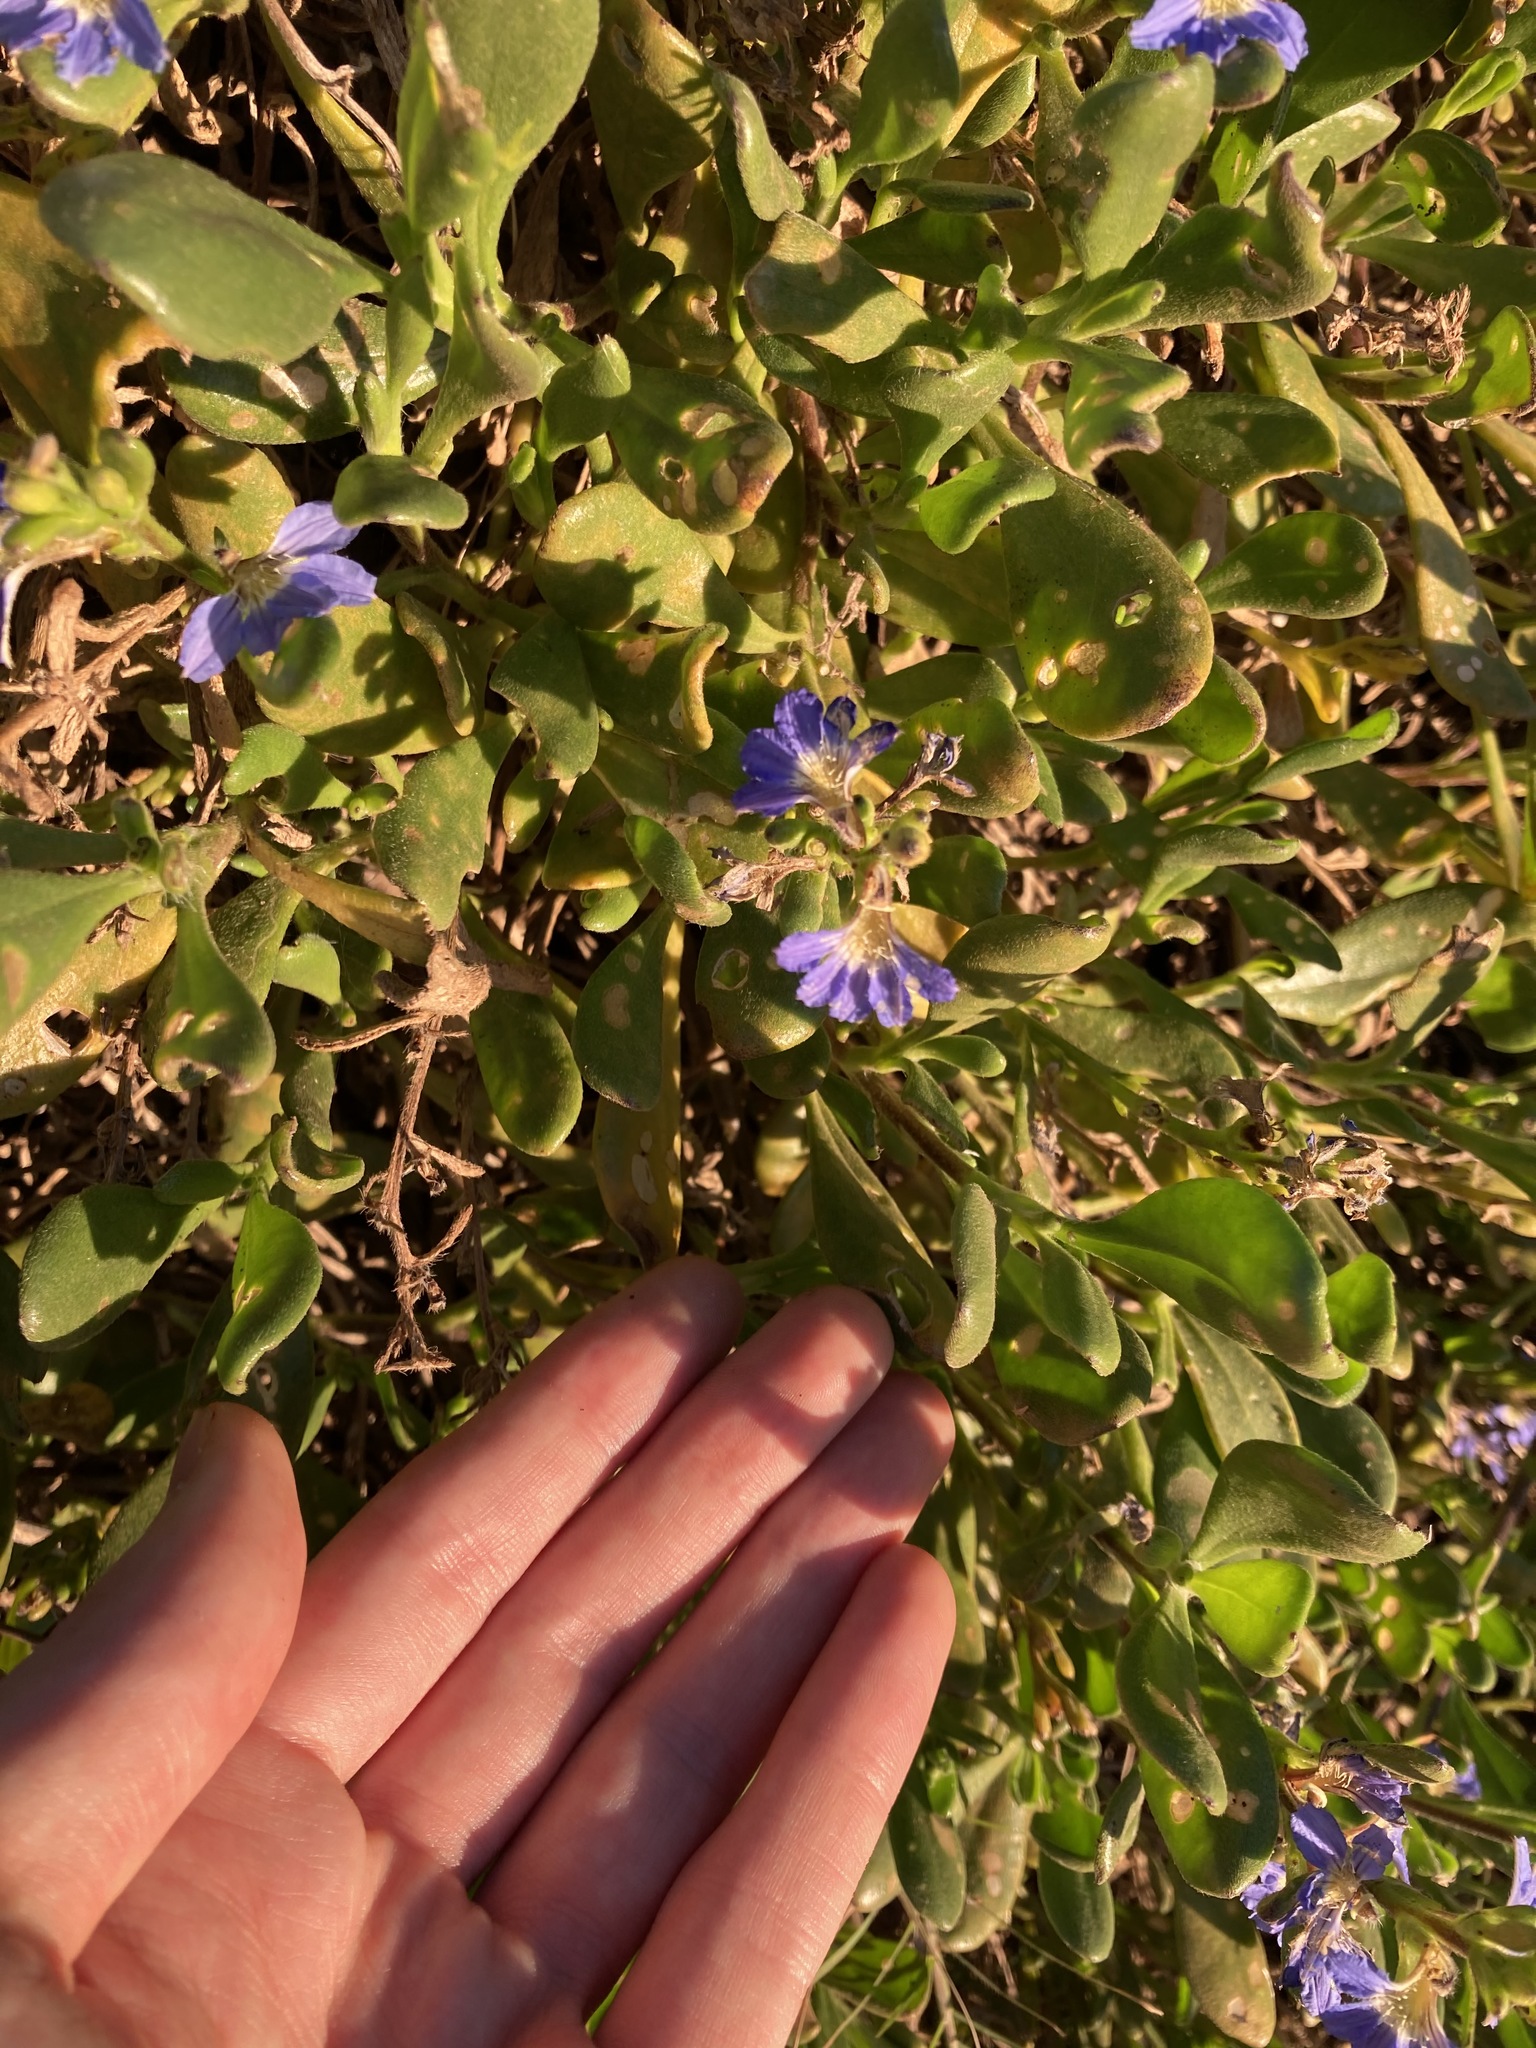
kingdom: Plantae
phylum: Tracheophyta
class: Magnoliopsida
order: Asterales
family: Goodeniaceae
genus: Scaevola
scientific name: Scaevola calendulacea
